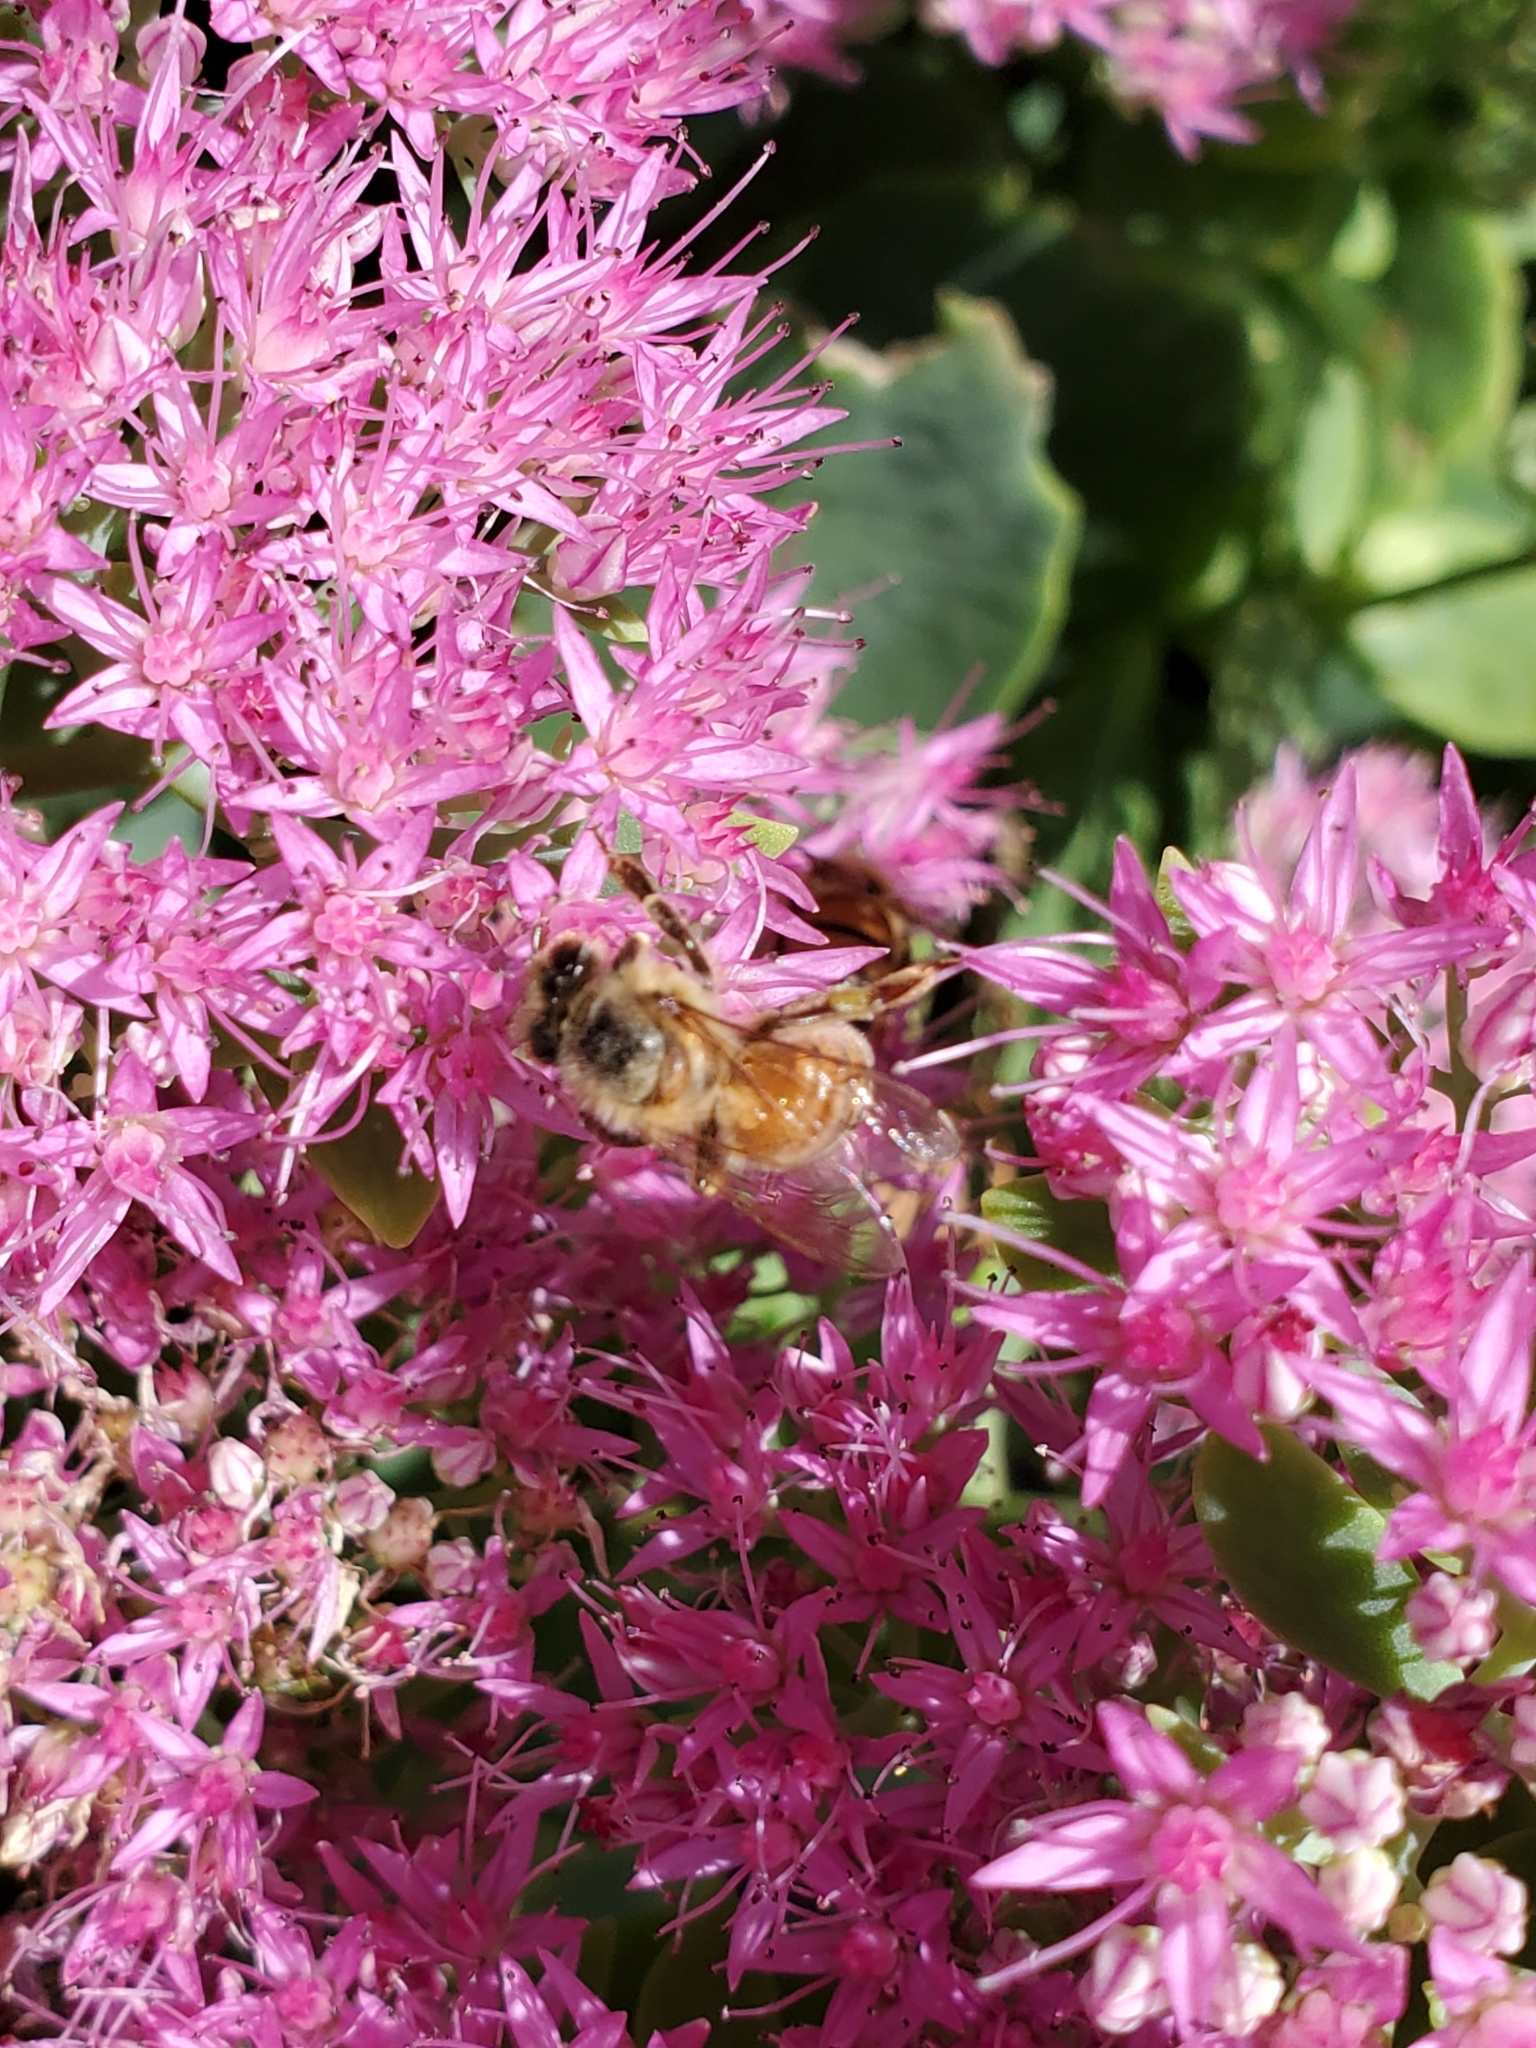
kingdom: Animalia
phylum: Arthropoda
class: Insecta
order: Hymenoptera
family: Apidae
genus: Apis
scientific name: Apis mellifera
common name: Honey bee
